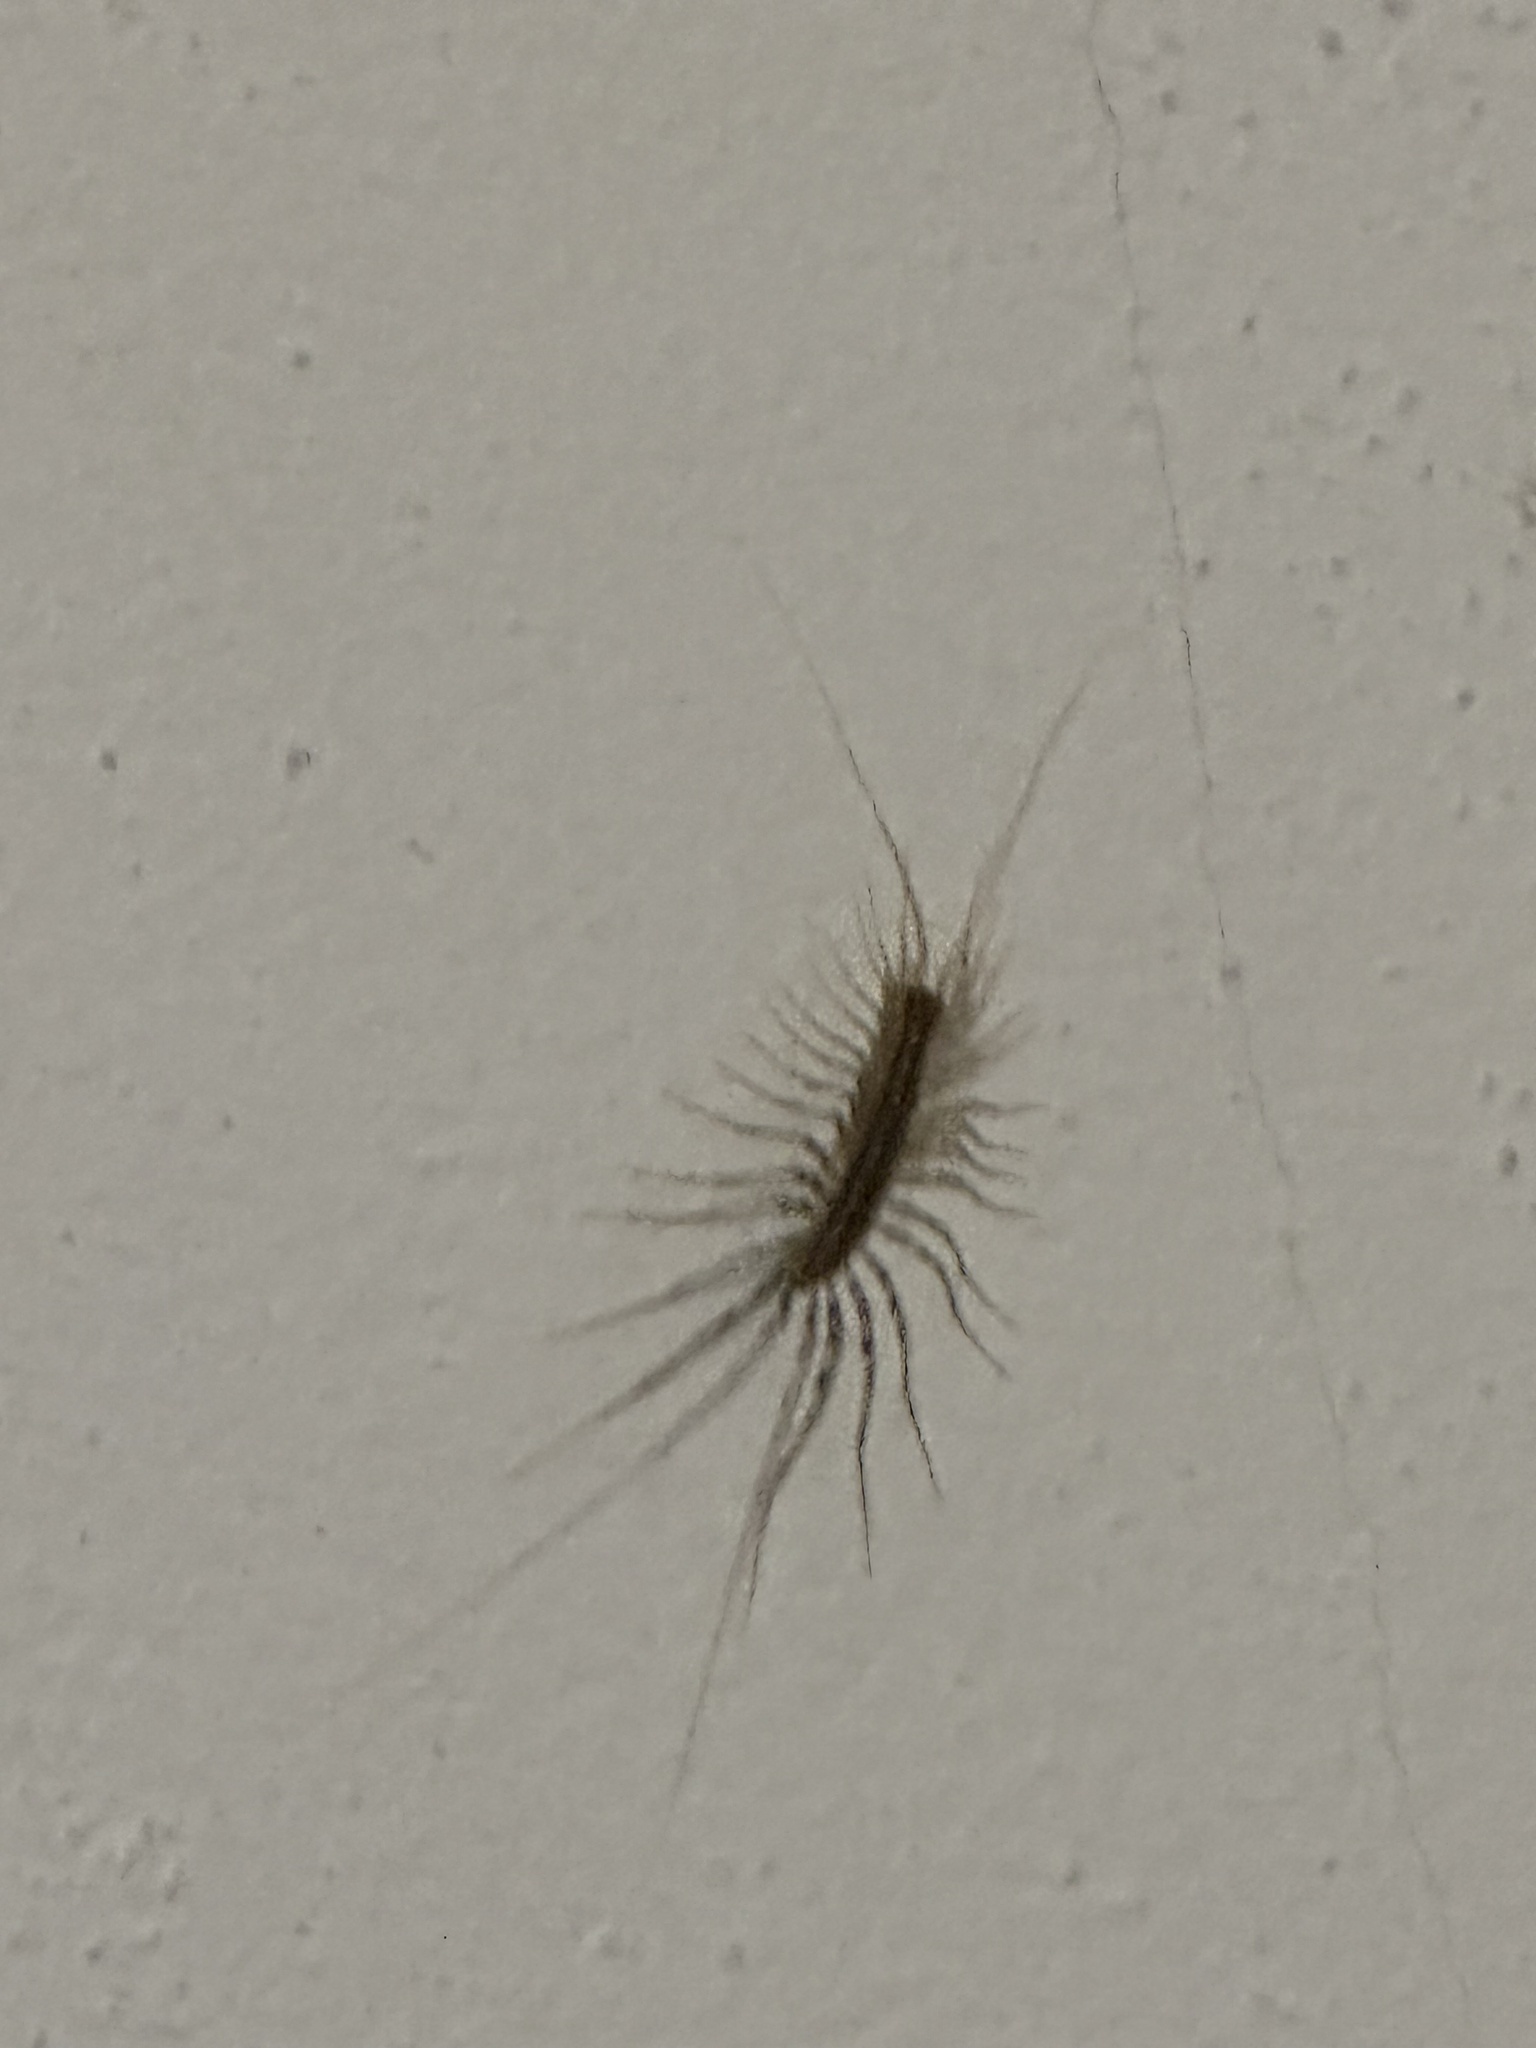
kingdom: Animalia
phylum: Arthropoda
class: Chilopoda
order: Scutigeromorpha
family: Scutigeridae
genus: Scutigera
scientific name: Scutigera coleoptrata
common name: House centipede
